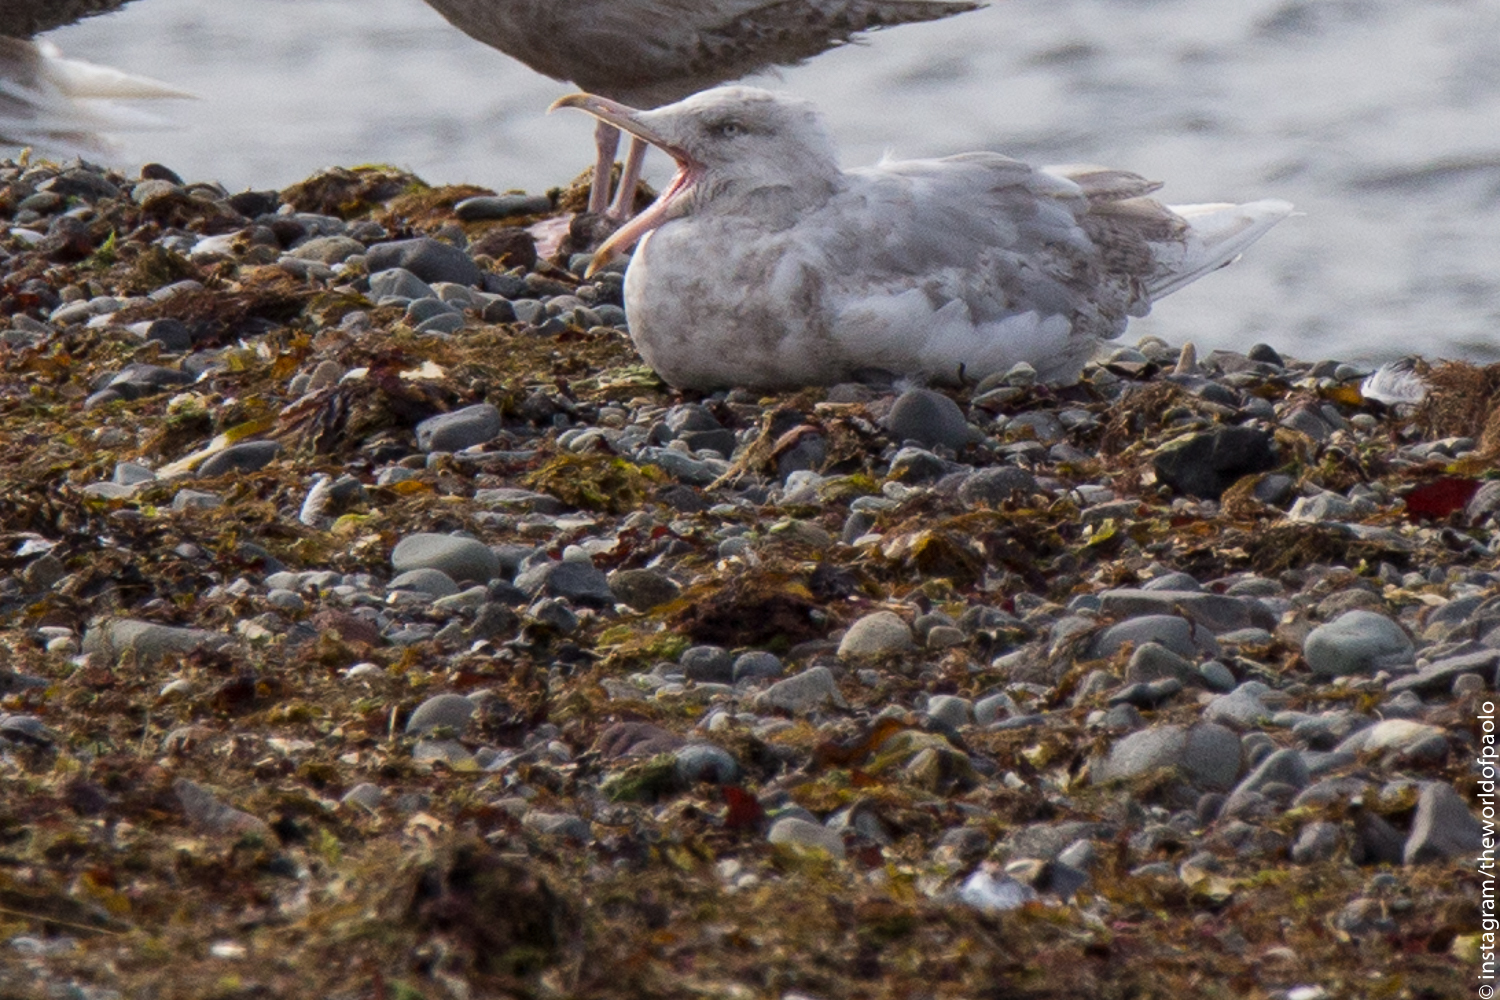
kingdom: Animalia
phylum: Chordata
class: Aves
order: Charadriiformes
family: Laridae
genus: Larus
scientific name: Larus hyperboreus
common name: Glaucous gull
